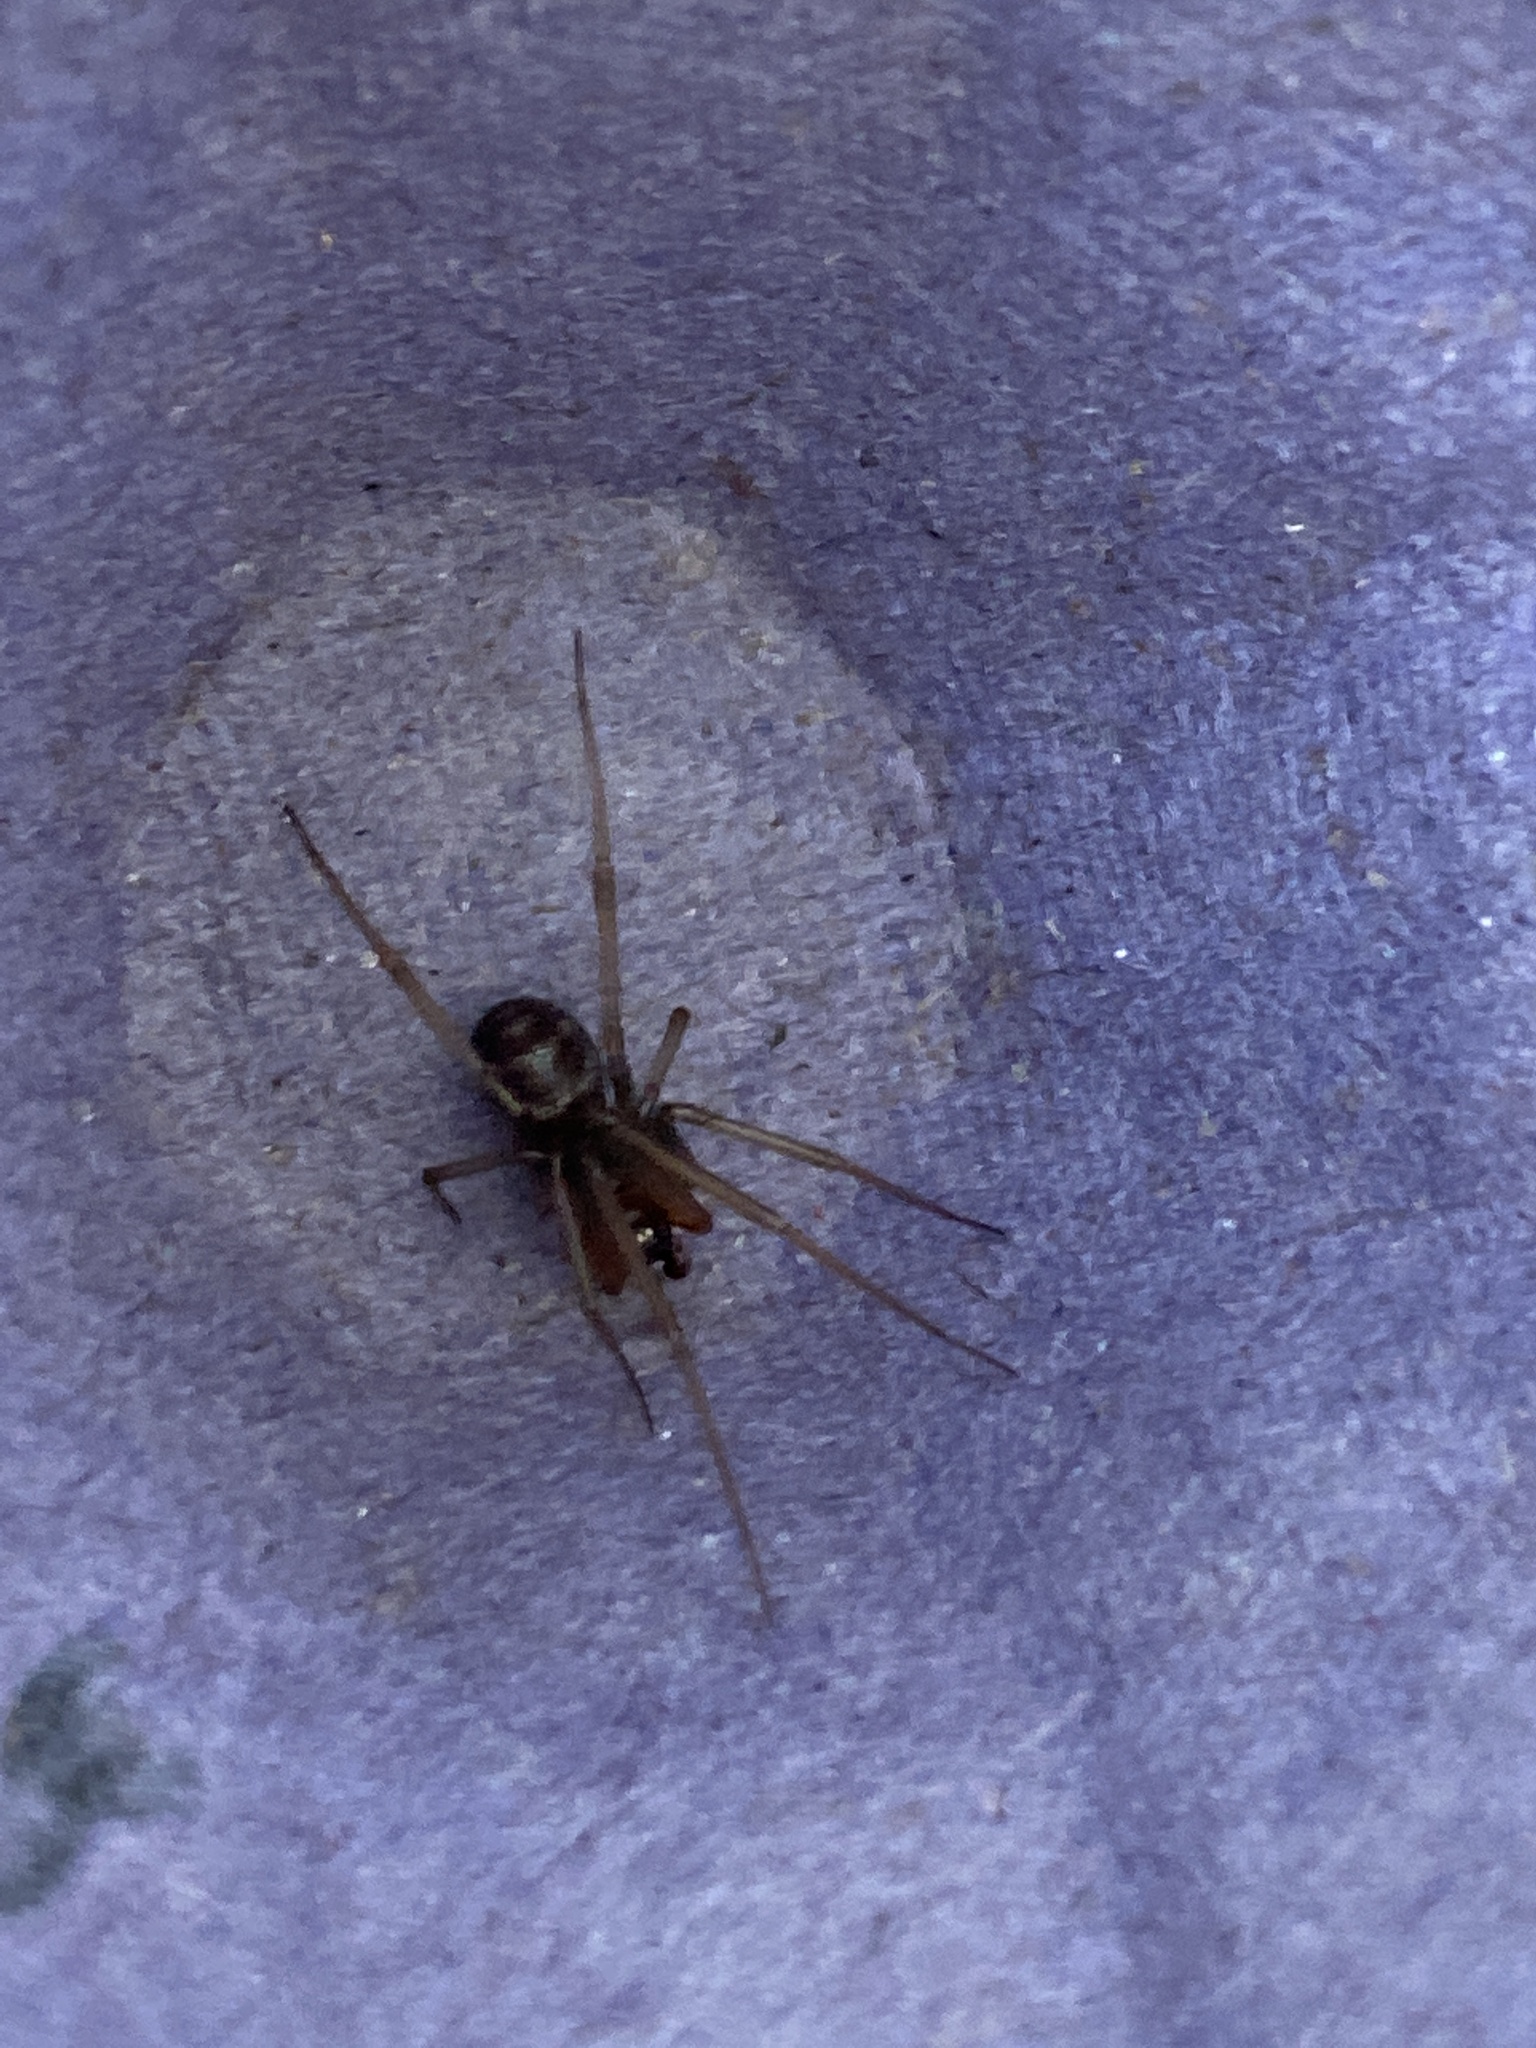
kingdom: Animalia
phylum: Arthropoda
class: Arachnida
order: Araneae
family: Theridiidae
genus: Steatoda
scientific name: Steatoda grossa
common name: False black widow
